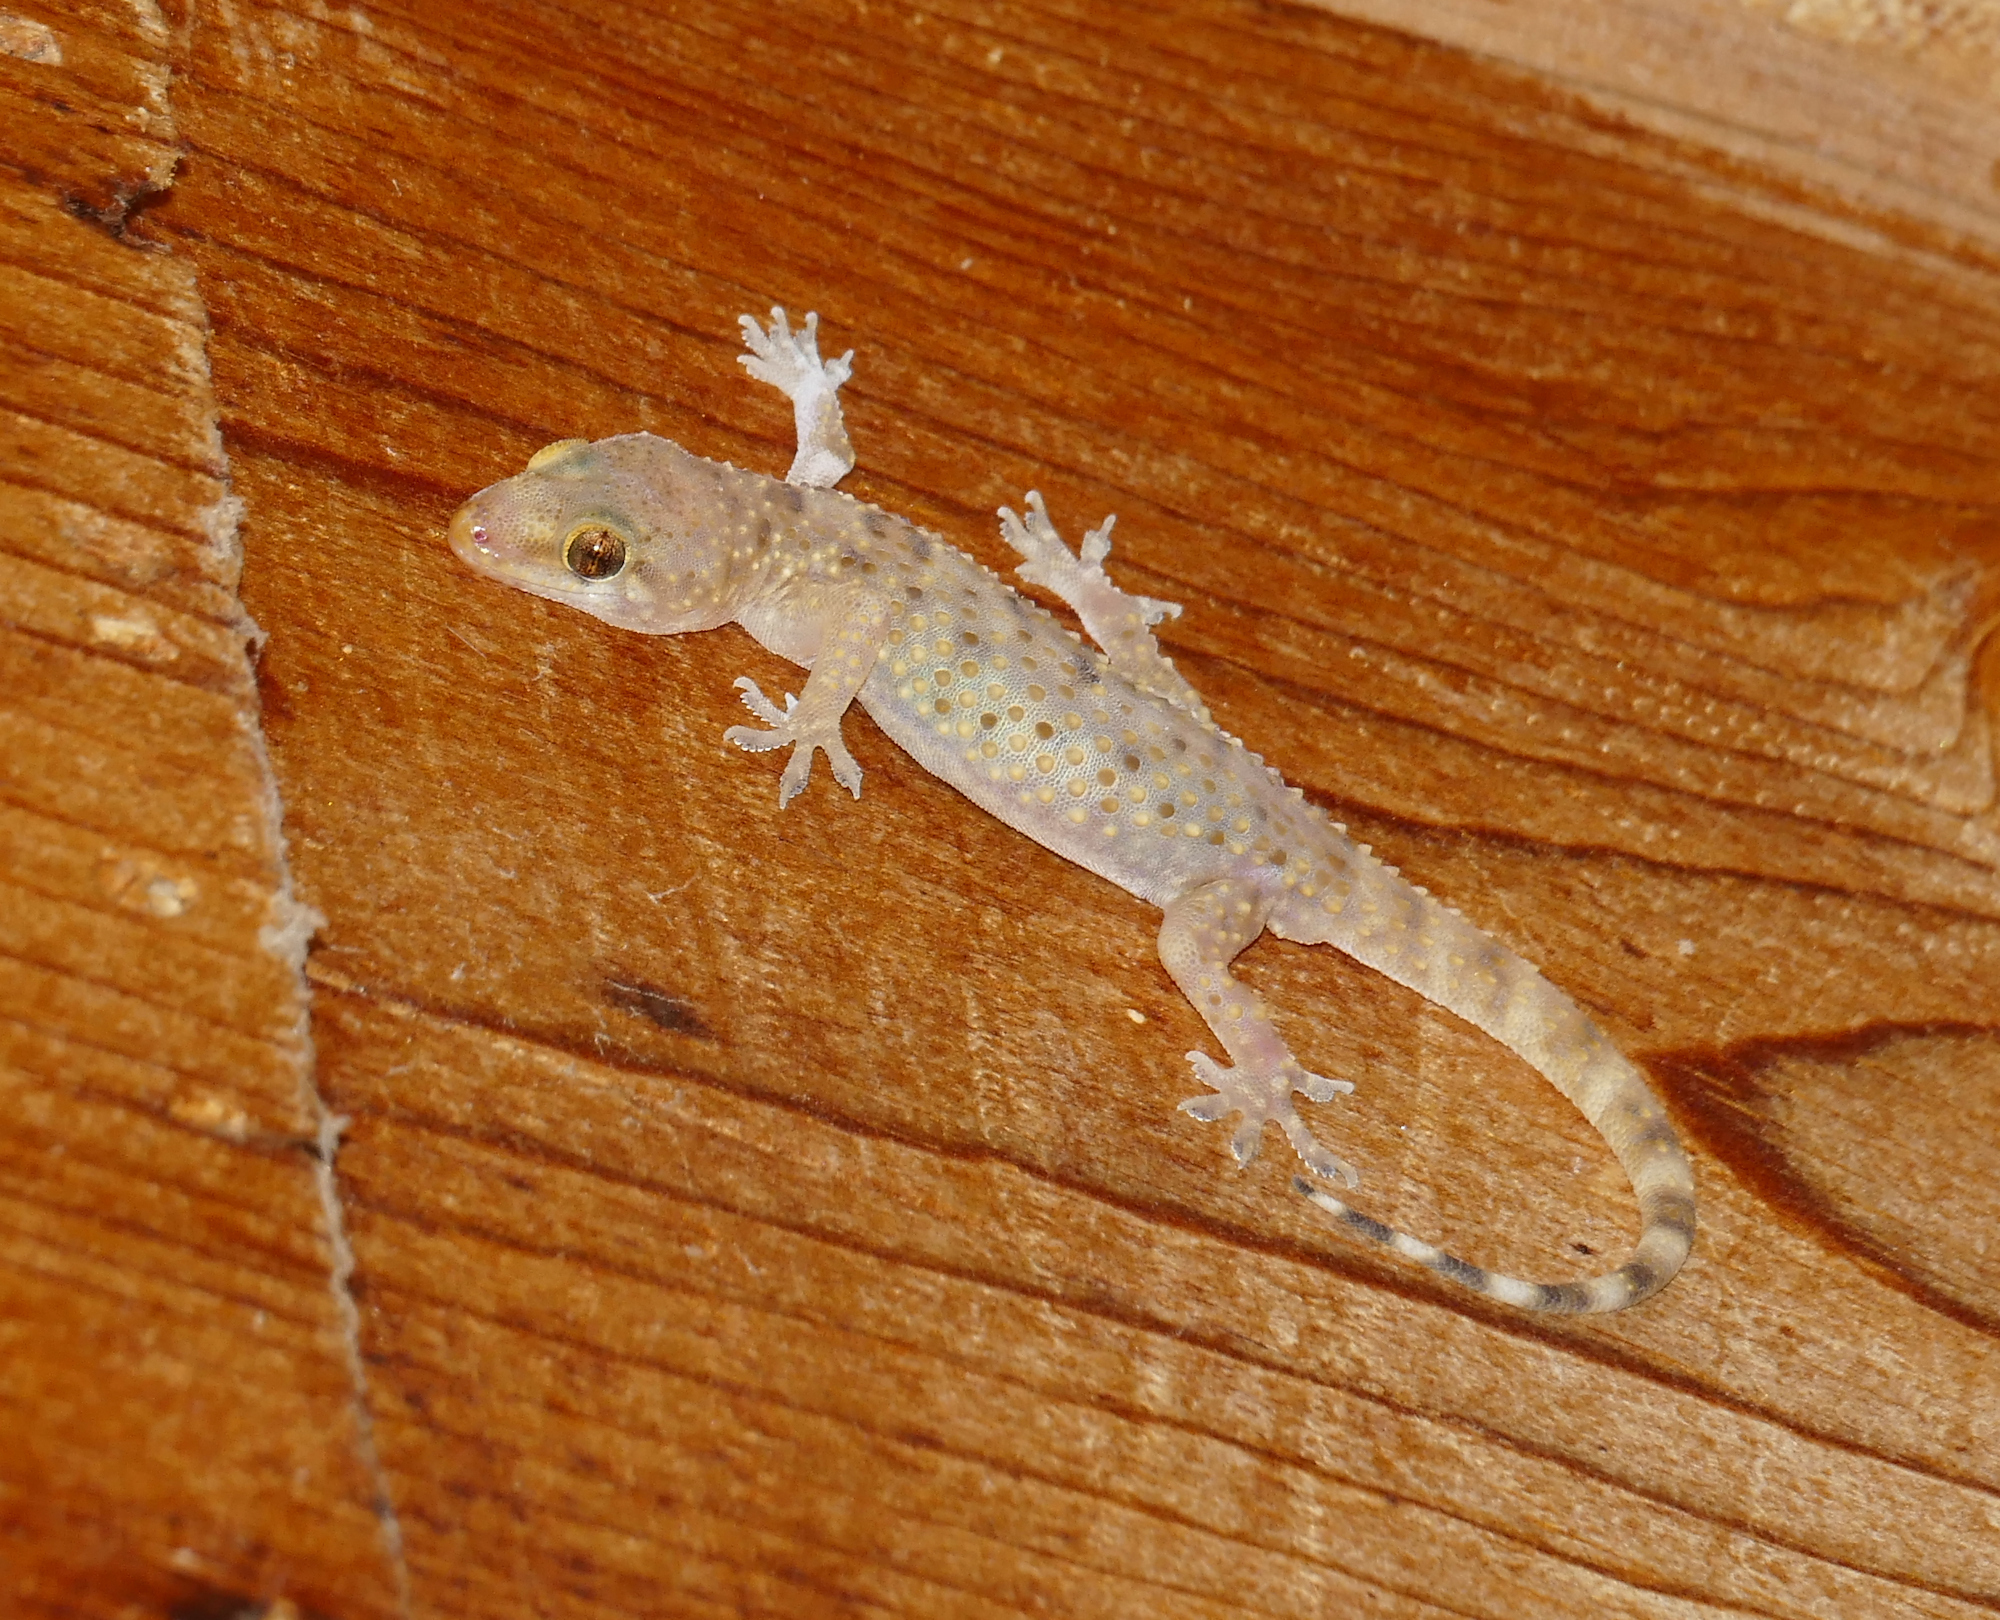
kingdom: Animalia
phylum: Chordata
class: Squamata
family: Gekkonidae
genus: Hemidactylus
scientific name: Hemidactylus turcicus
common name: Turkish gecko
